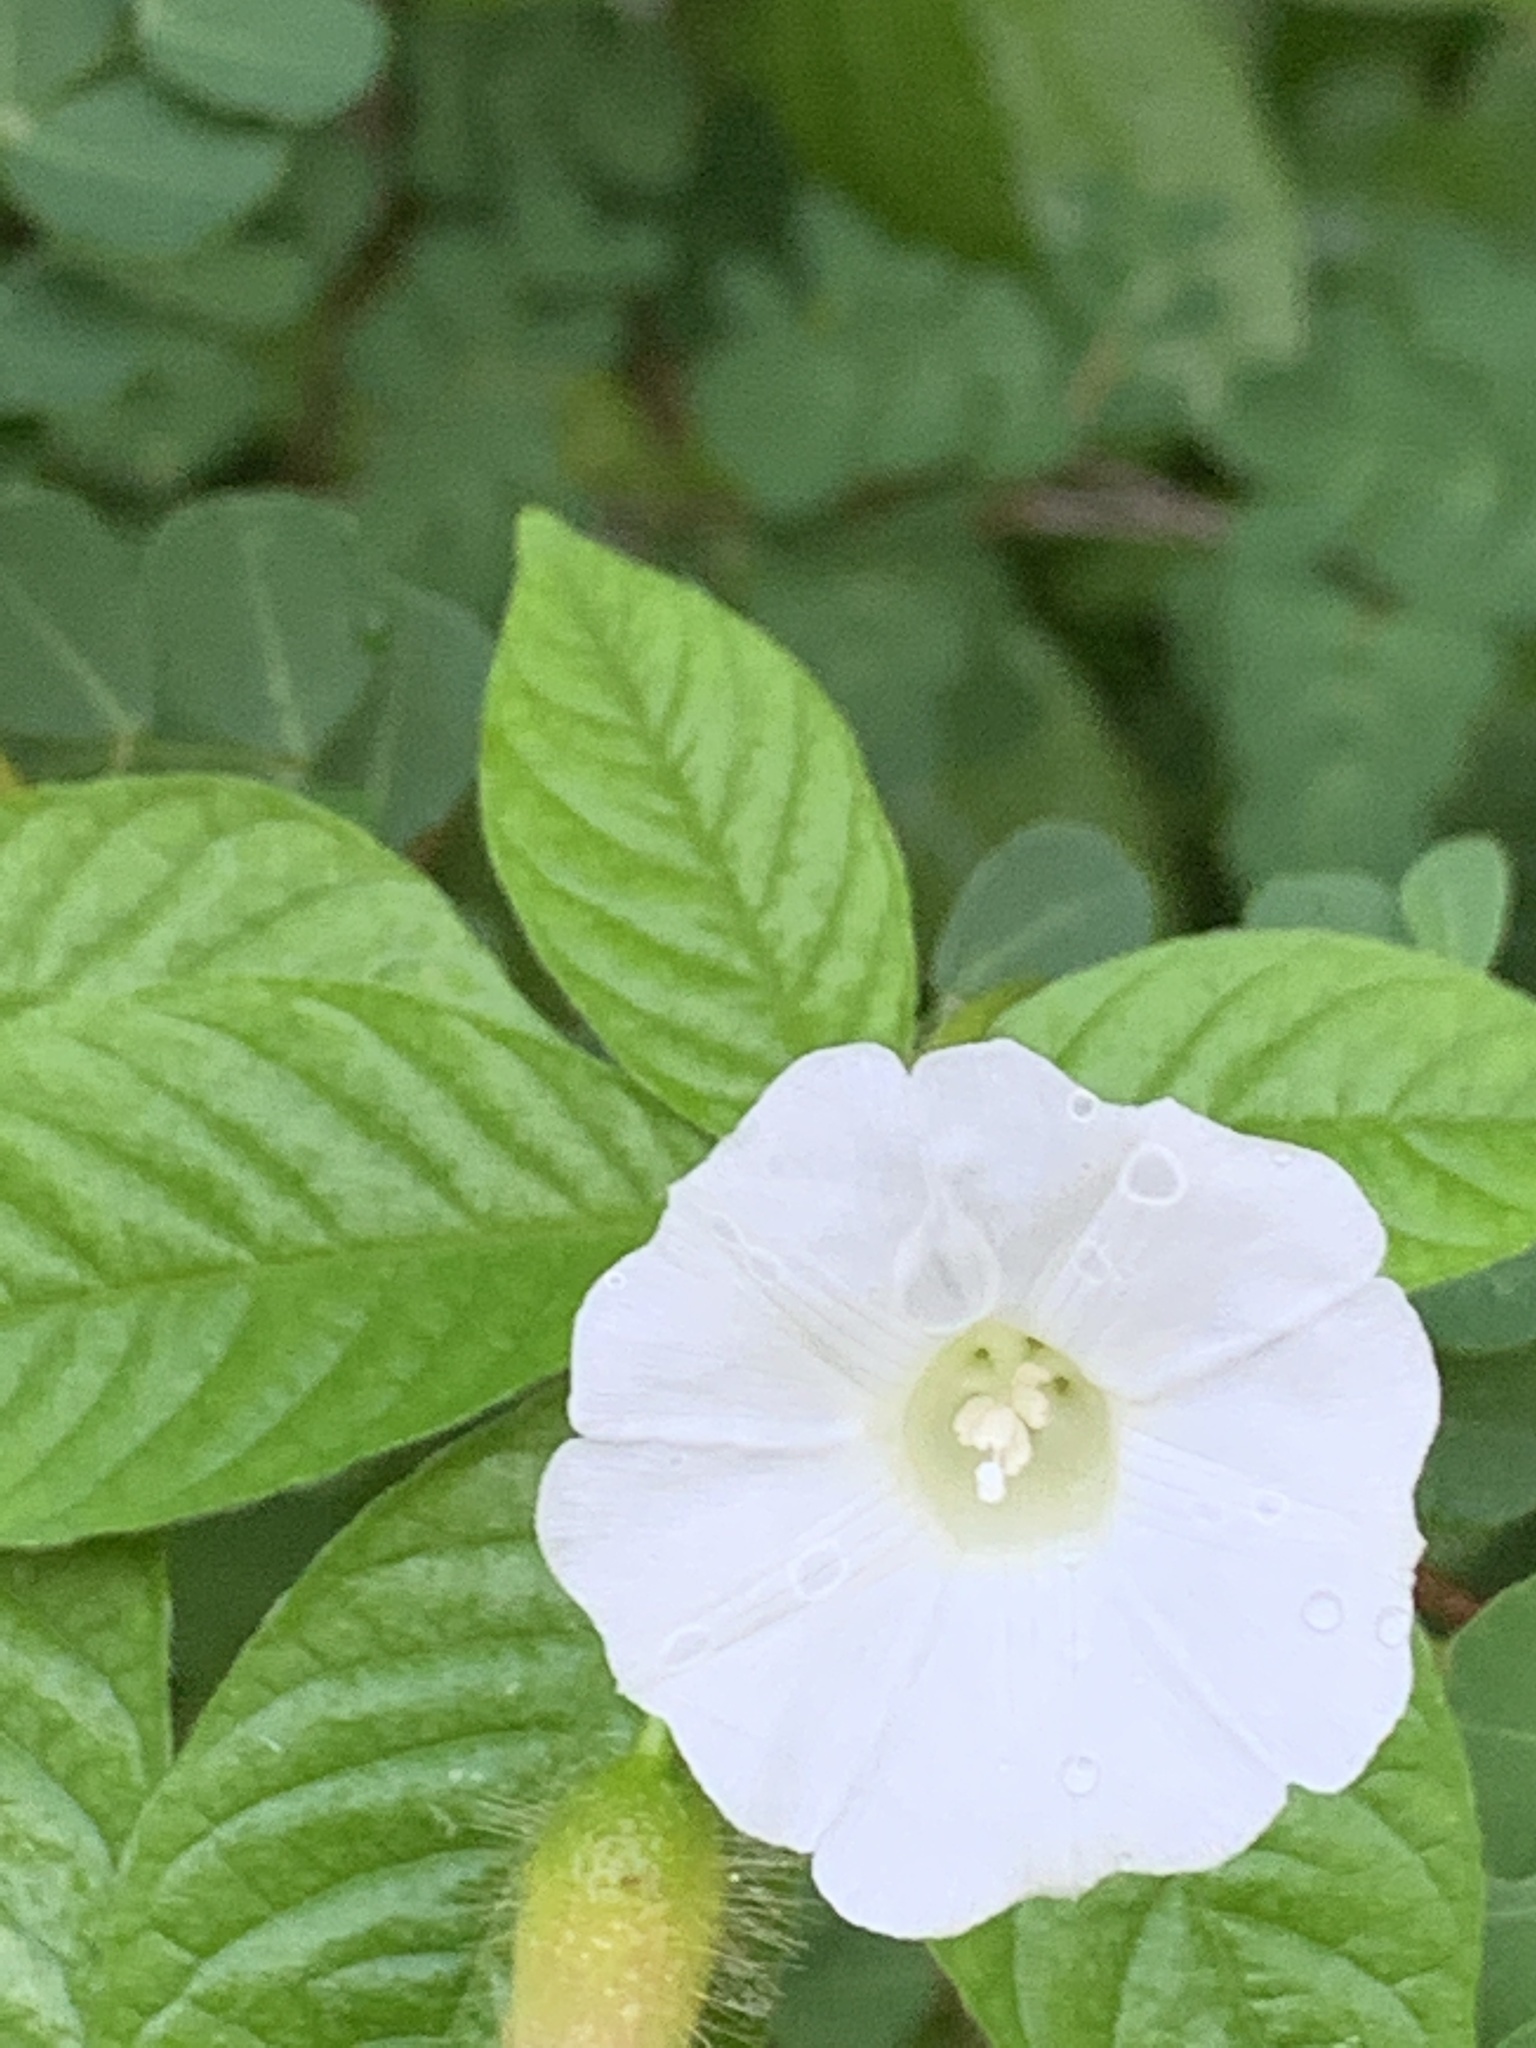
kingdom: Plantae
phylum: Tracheophyta
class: Magnoliopsida
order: Solanales
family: Convolvulaceae
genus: Distimake
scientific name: Distimake aegyptius
